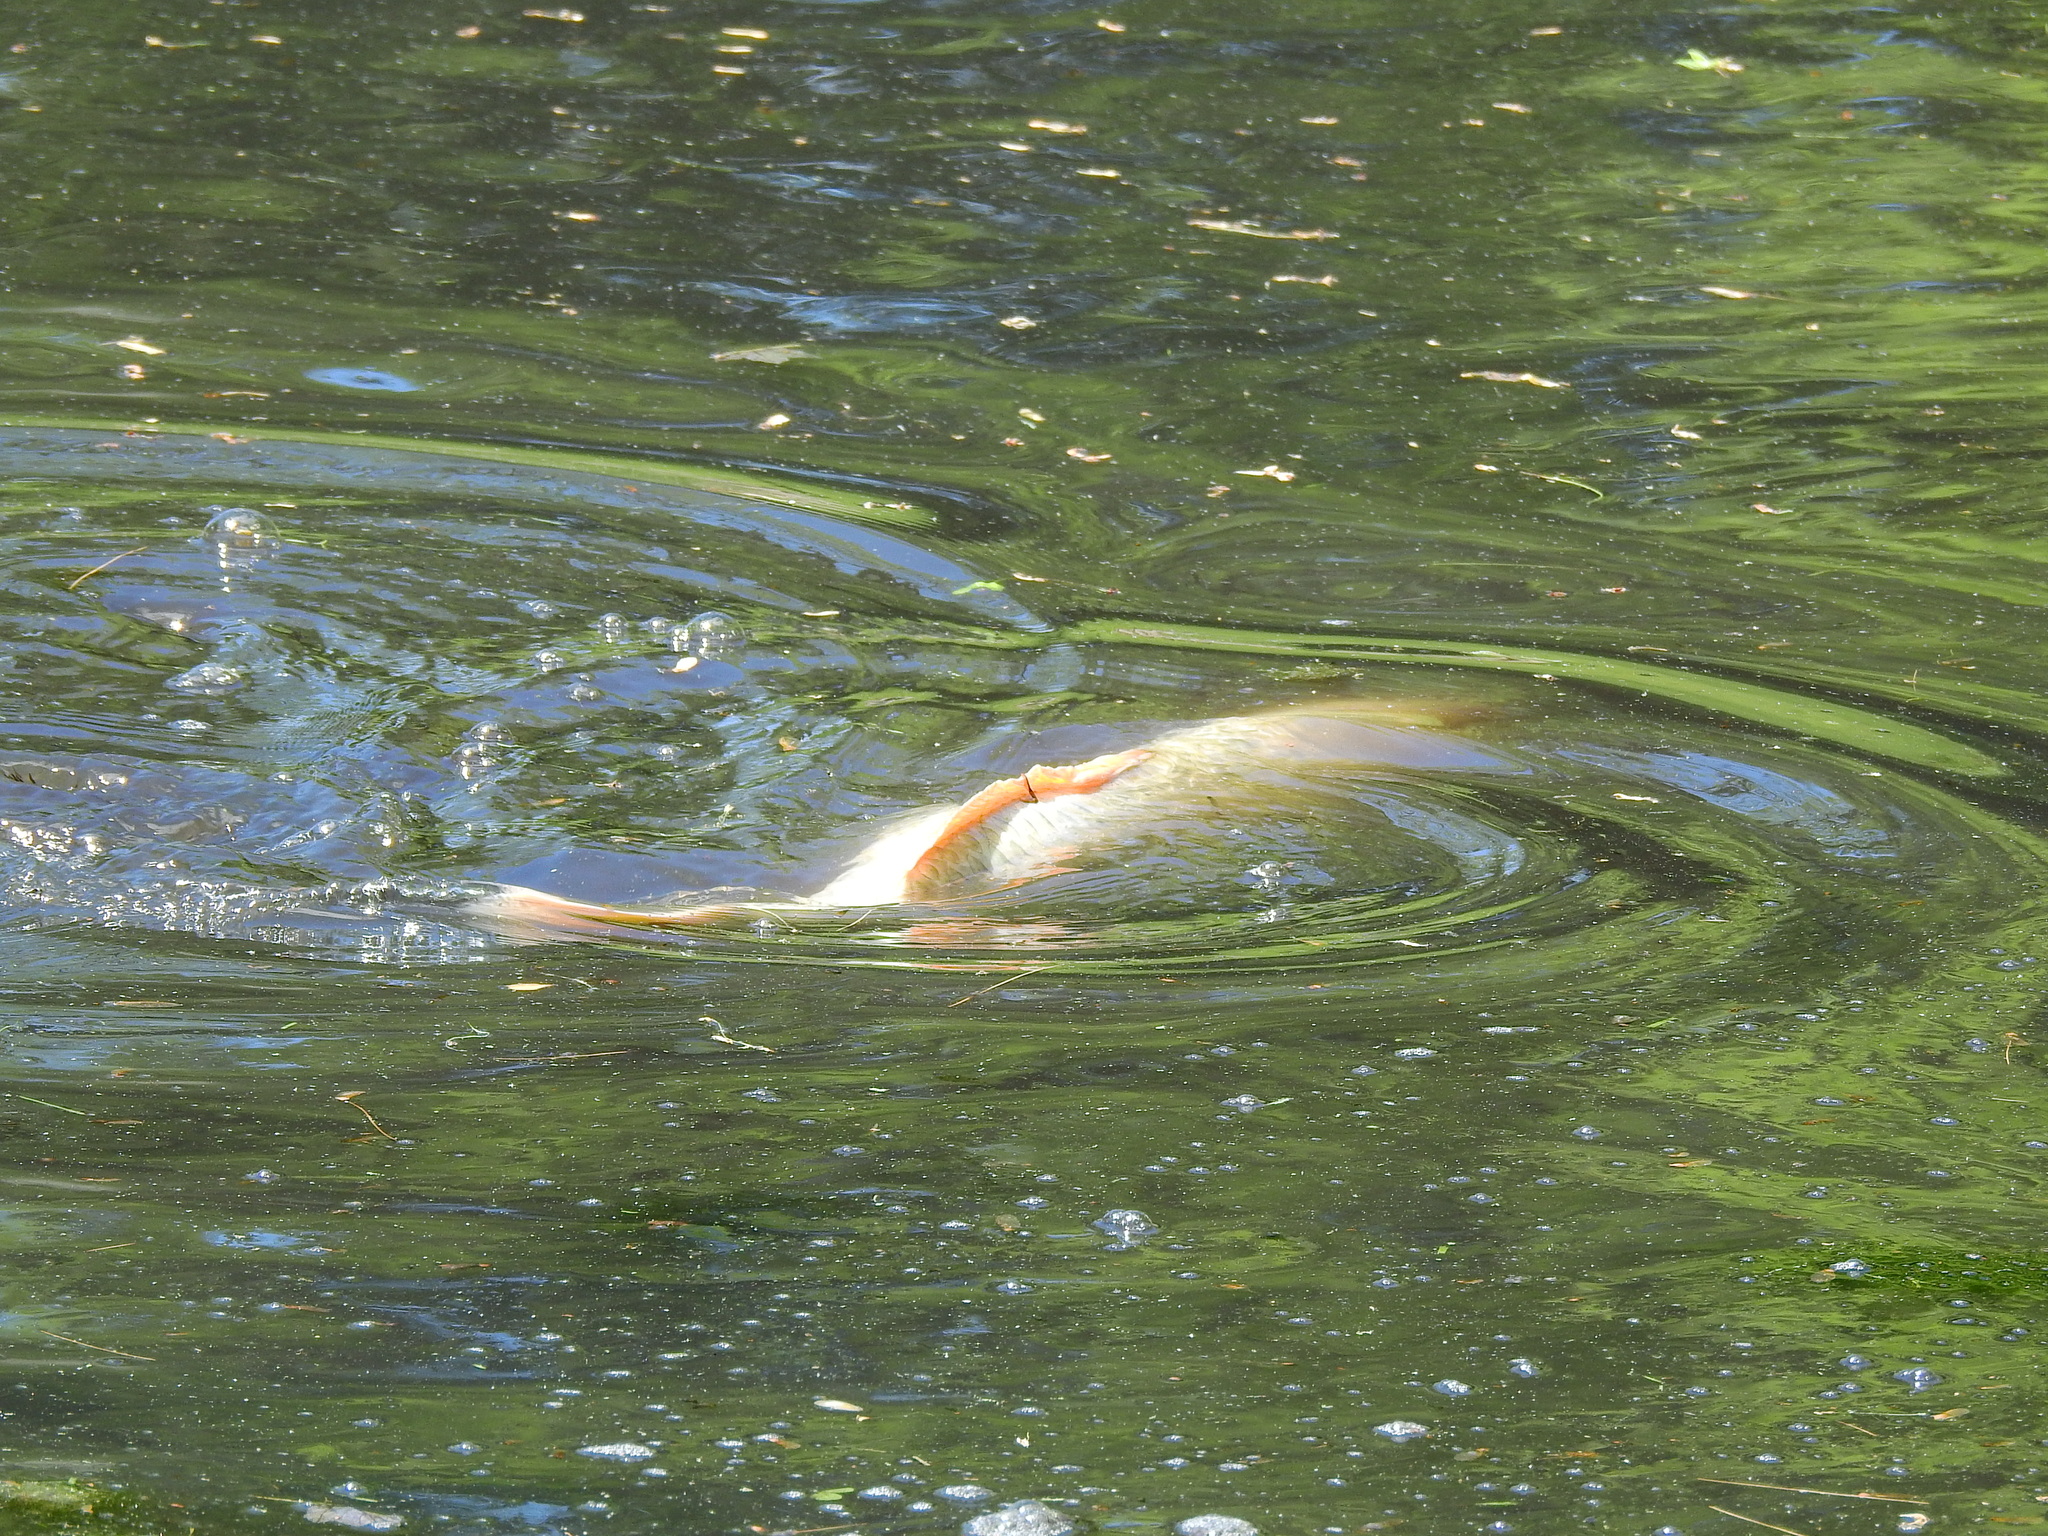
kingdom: Animalia
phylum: Chordata
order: Cypriniformes
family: Cyprinidae
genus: Cyprinus
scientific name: Cyprinus carpio
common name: Common carp
